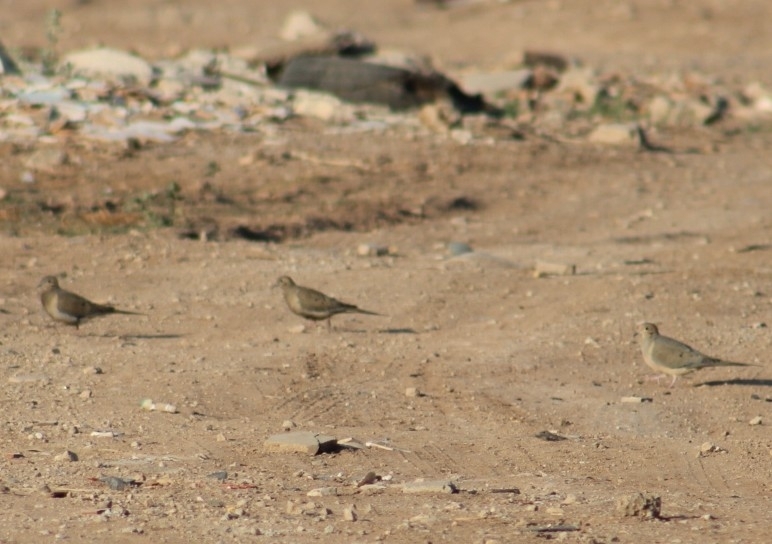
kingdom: Animalia
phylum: Chordata
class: Aves
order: Columbiformes
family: Columbidae
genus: Zenaida
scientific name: Zenaida macroura
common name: Mourning dove
